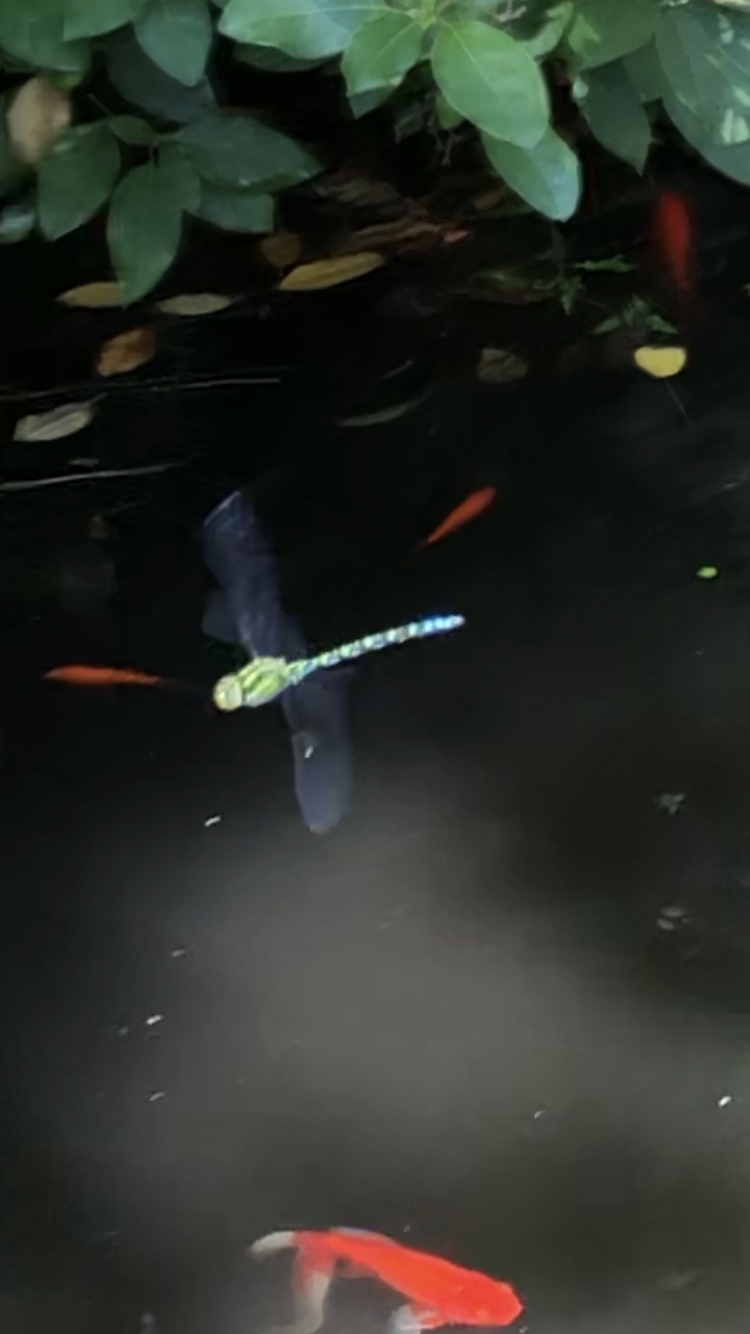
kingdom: Animalia
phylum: Arthropoda
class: Insecta
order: Odonata
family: Aeshnidae
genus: Aeshna
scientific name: Aeshna cyanea
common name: Southern hawker
